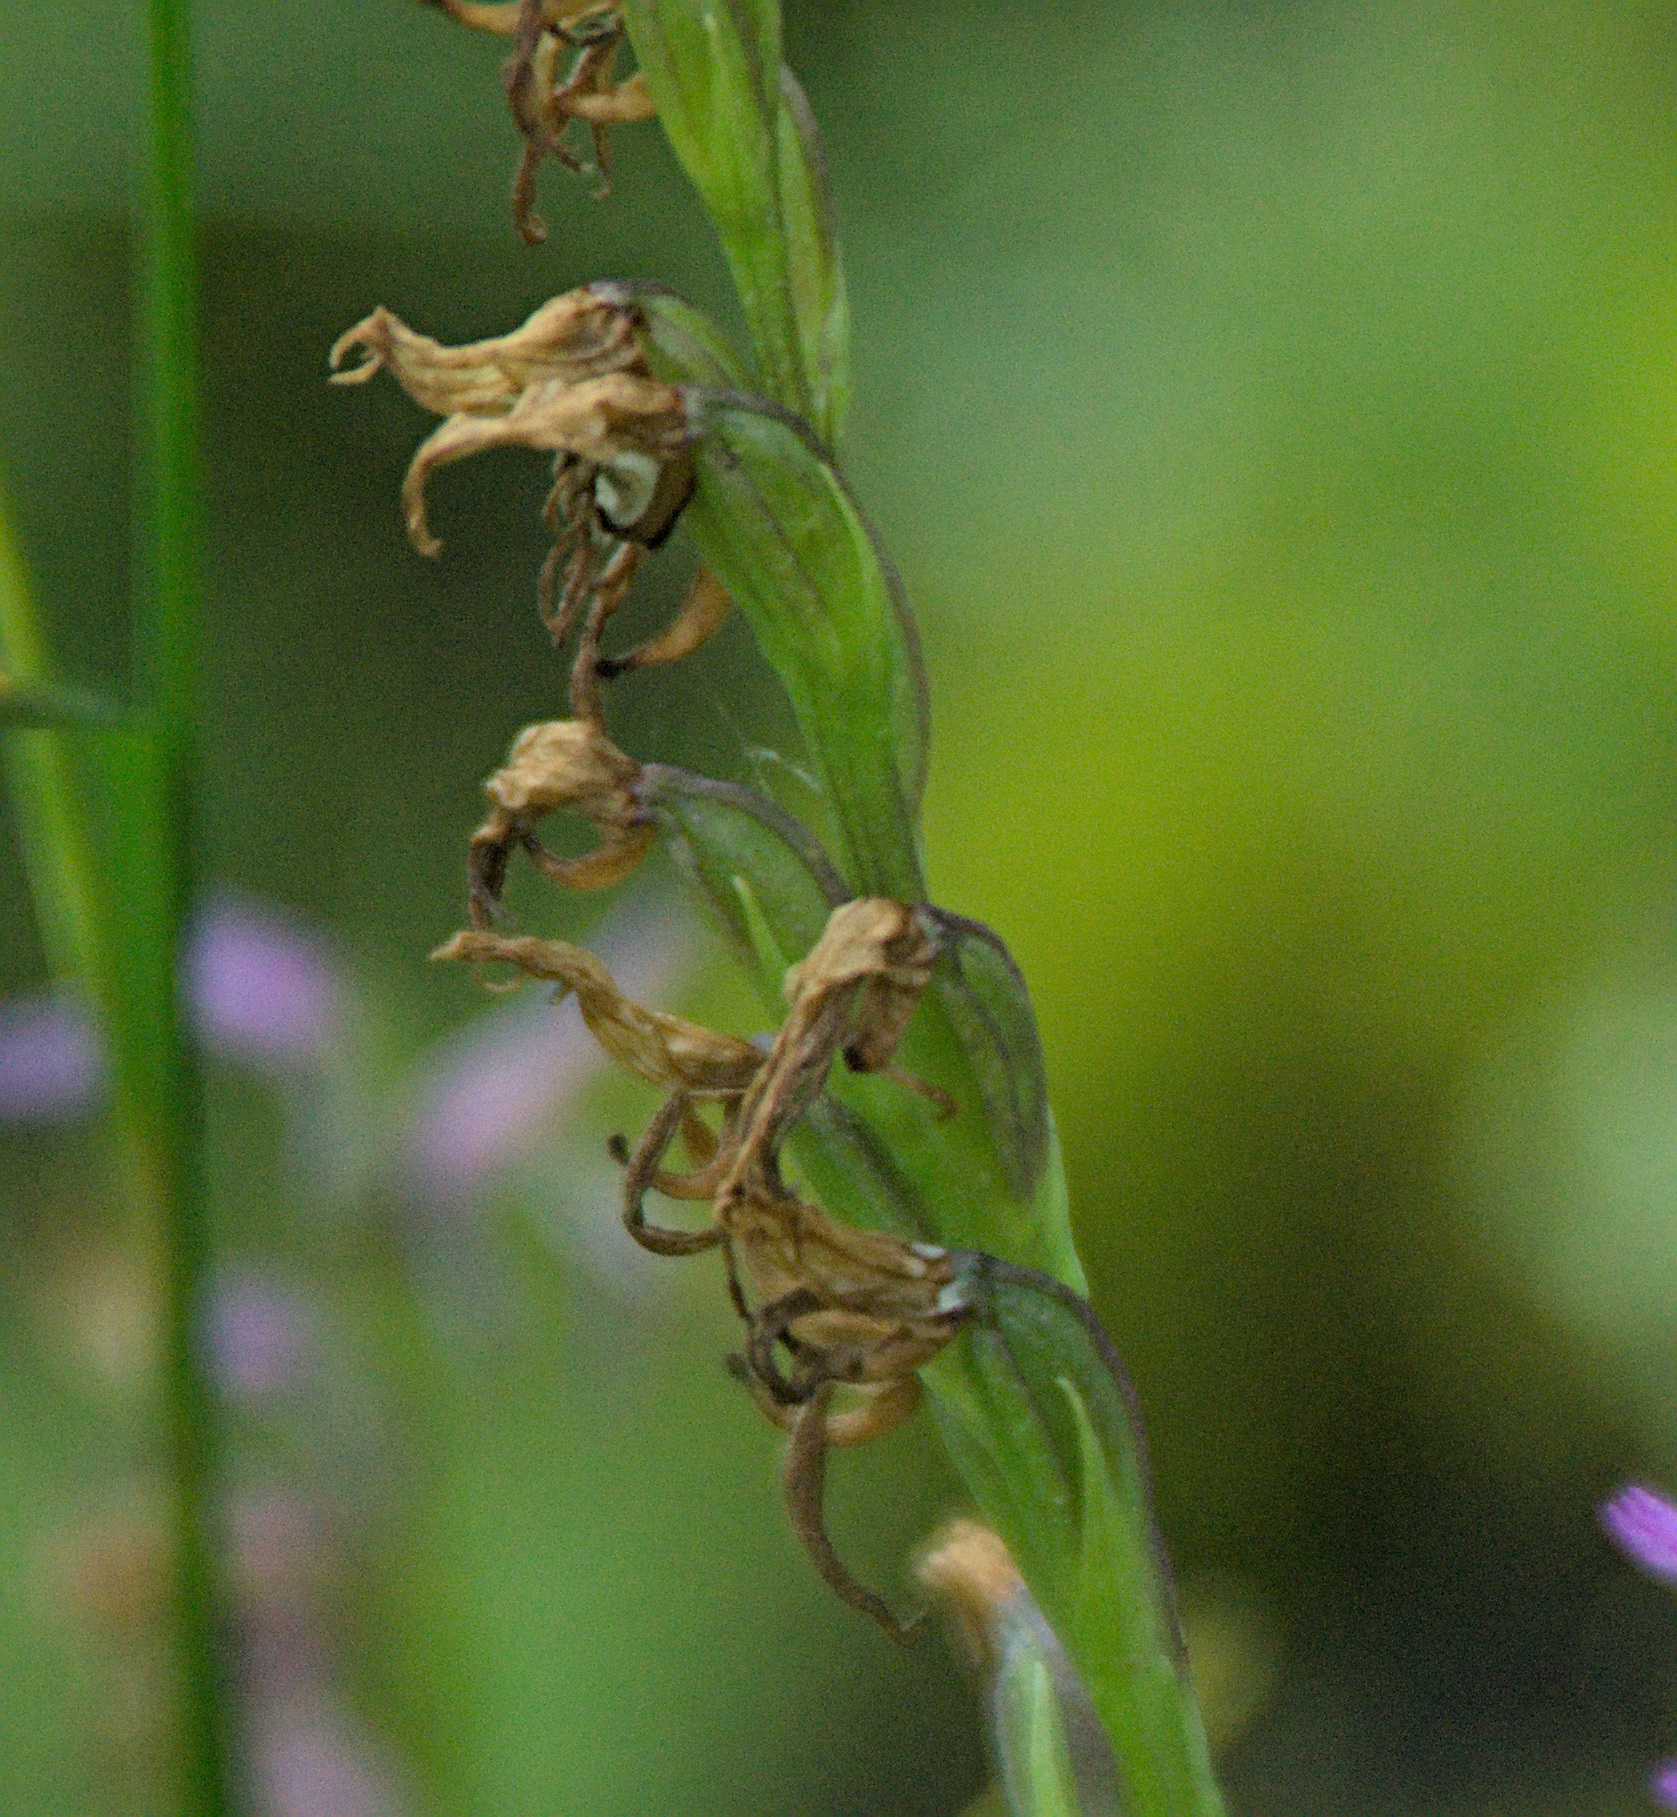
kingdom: Plantae
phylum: Tracheophyta
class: Liliopsida
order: Asparagales
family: Orchidaceae
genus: Hemipilia
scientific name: Hemipilia cucullata
